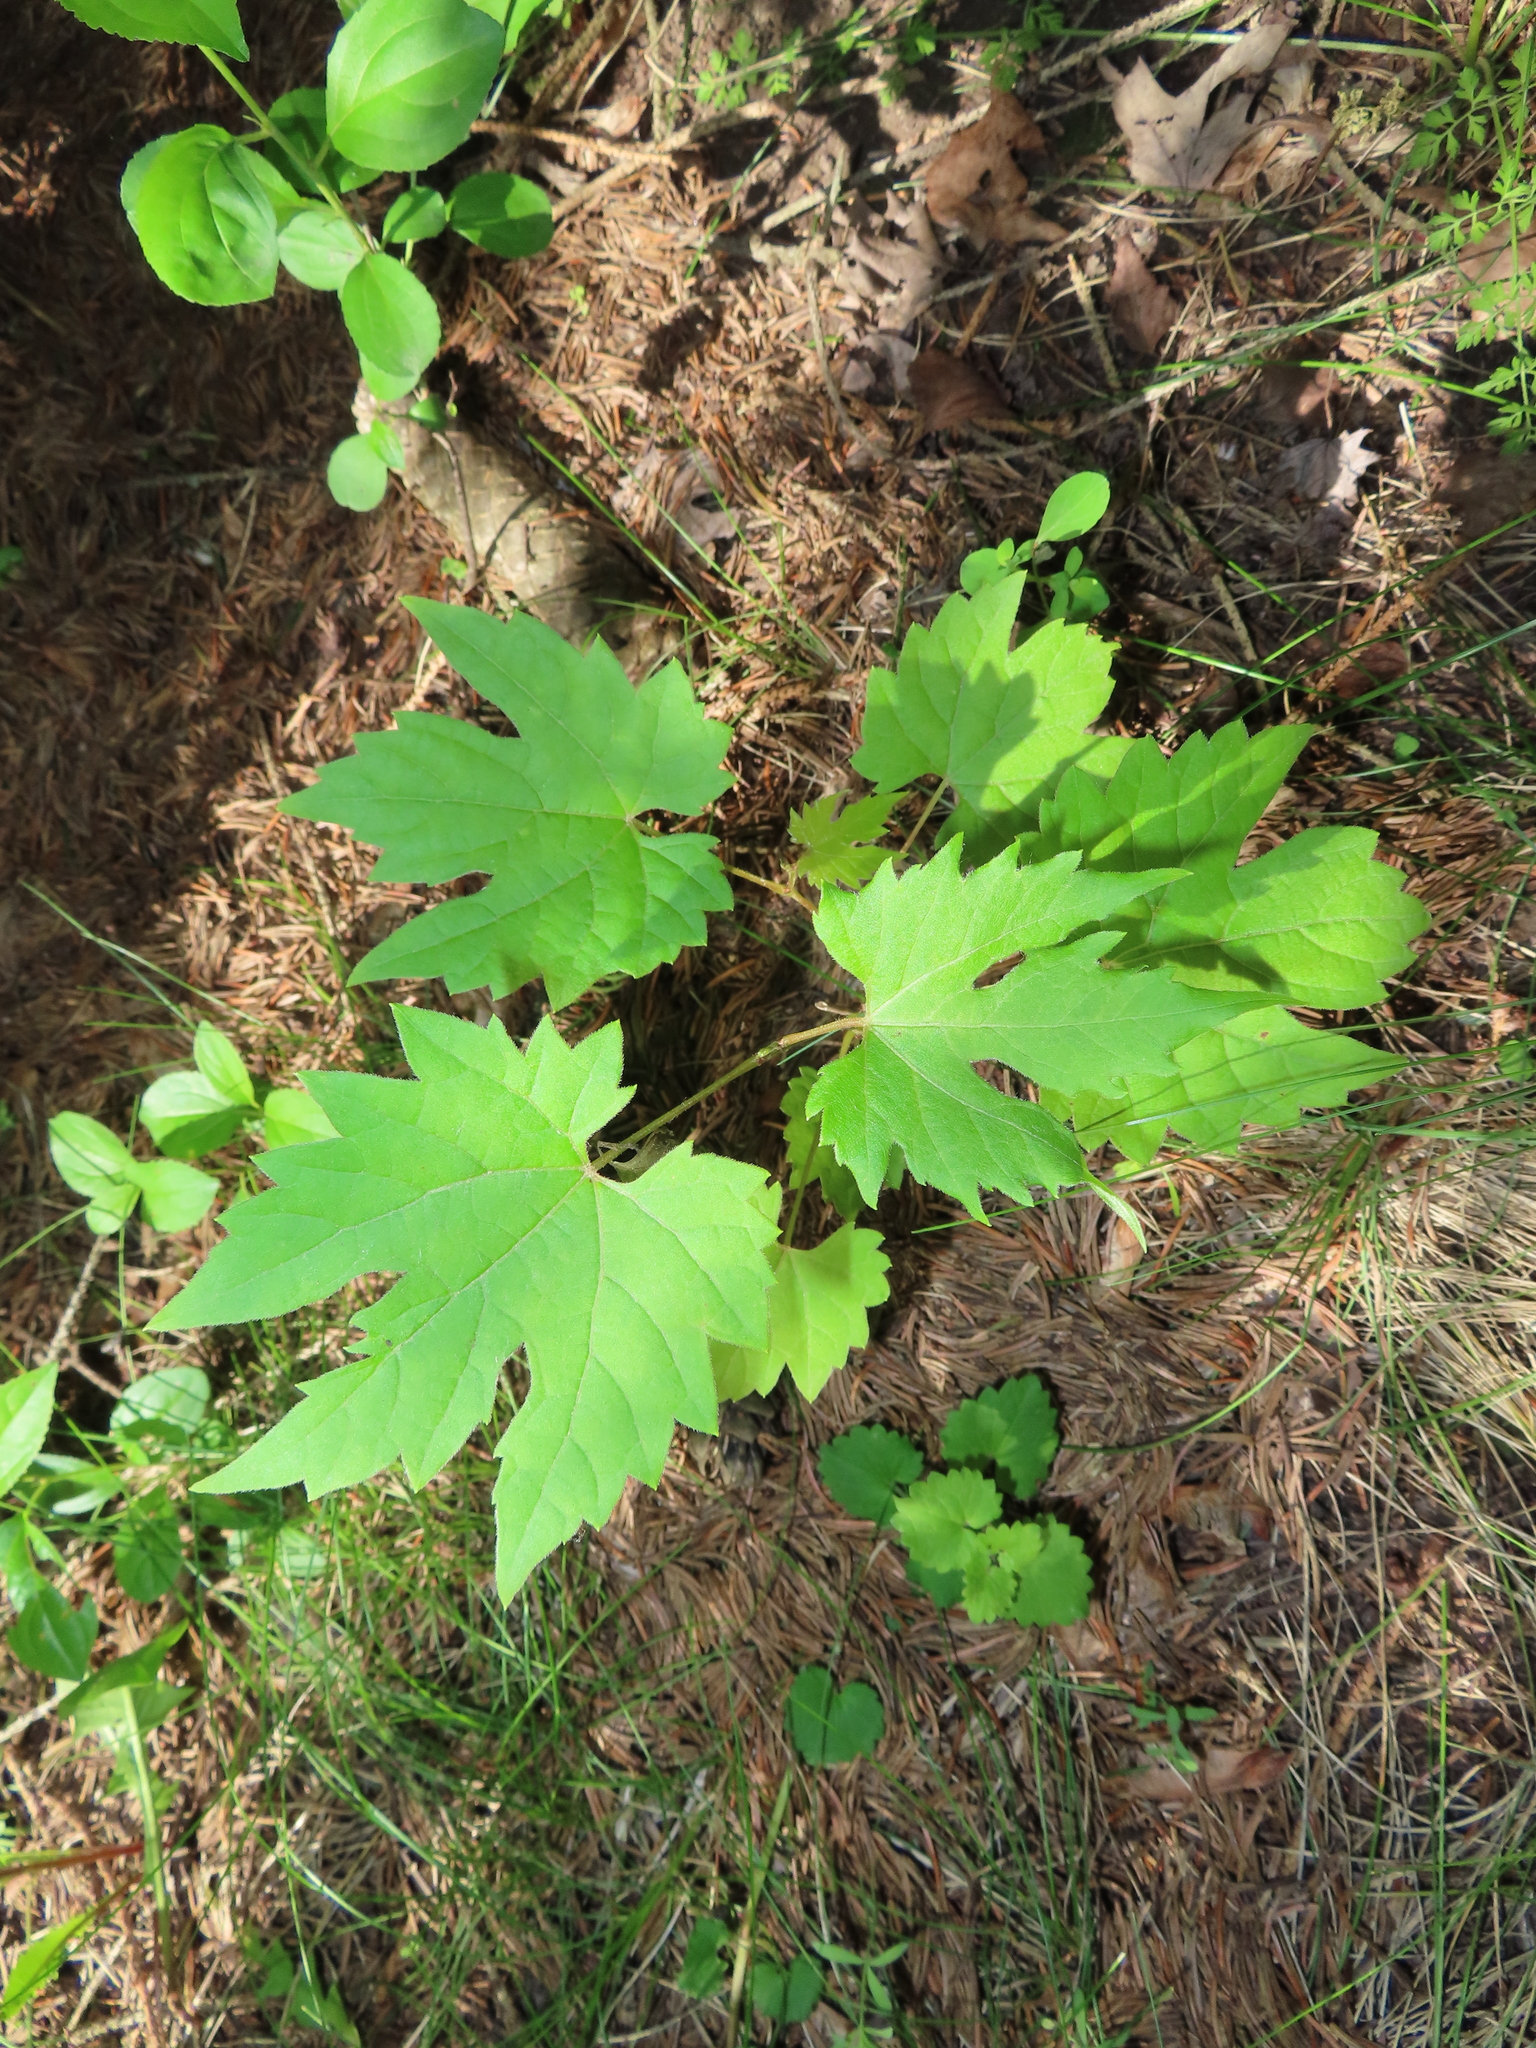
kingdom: Plantae
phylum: Tracheophyta
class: Magnoliopsida
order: Vitales
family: Vitaceae
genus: Vitis
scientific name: Vitis riparia
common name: Frost grape
